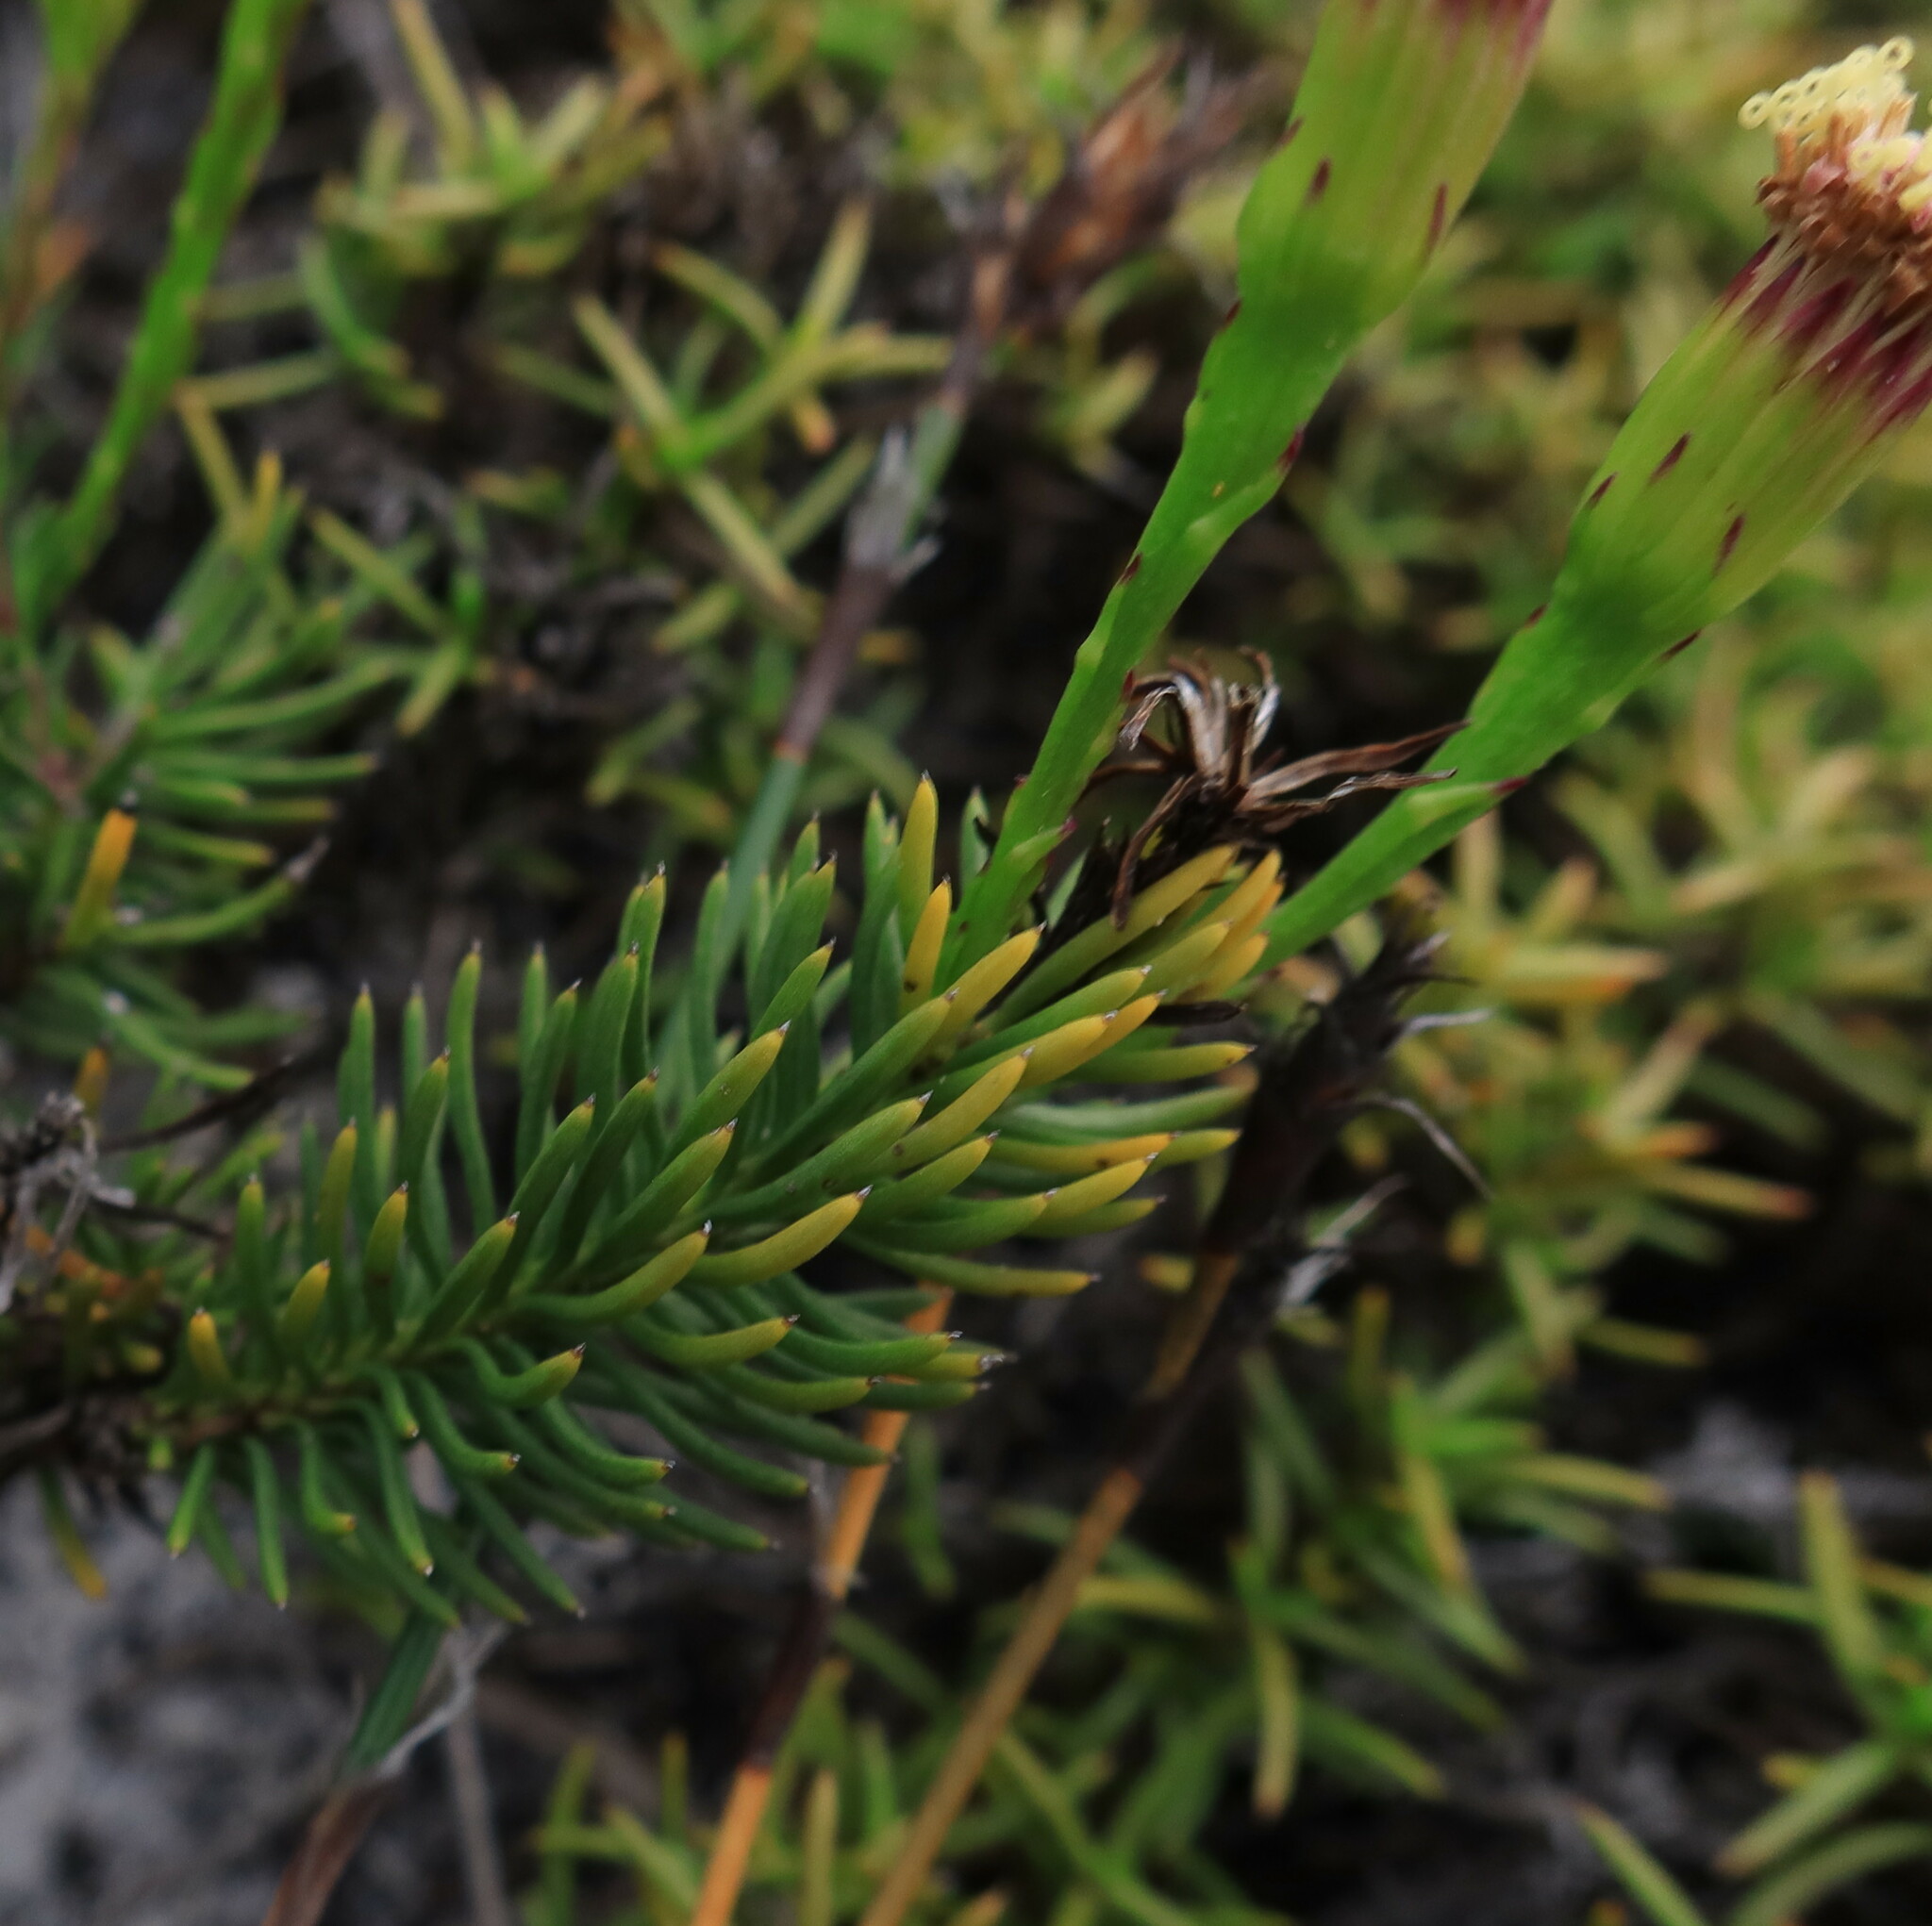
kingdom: Plantae
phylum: Tracheophyta
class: Magnoliopsida
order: Asterales
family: Asteraceae
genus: Senecio
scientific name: Senecio triqueter
